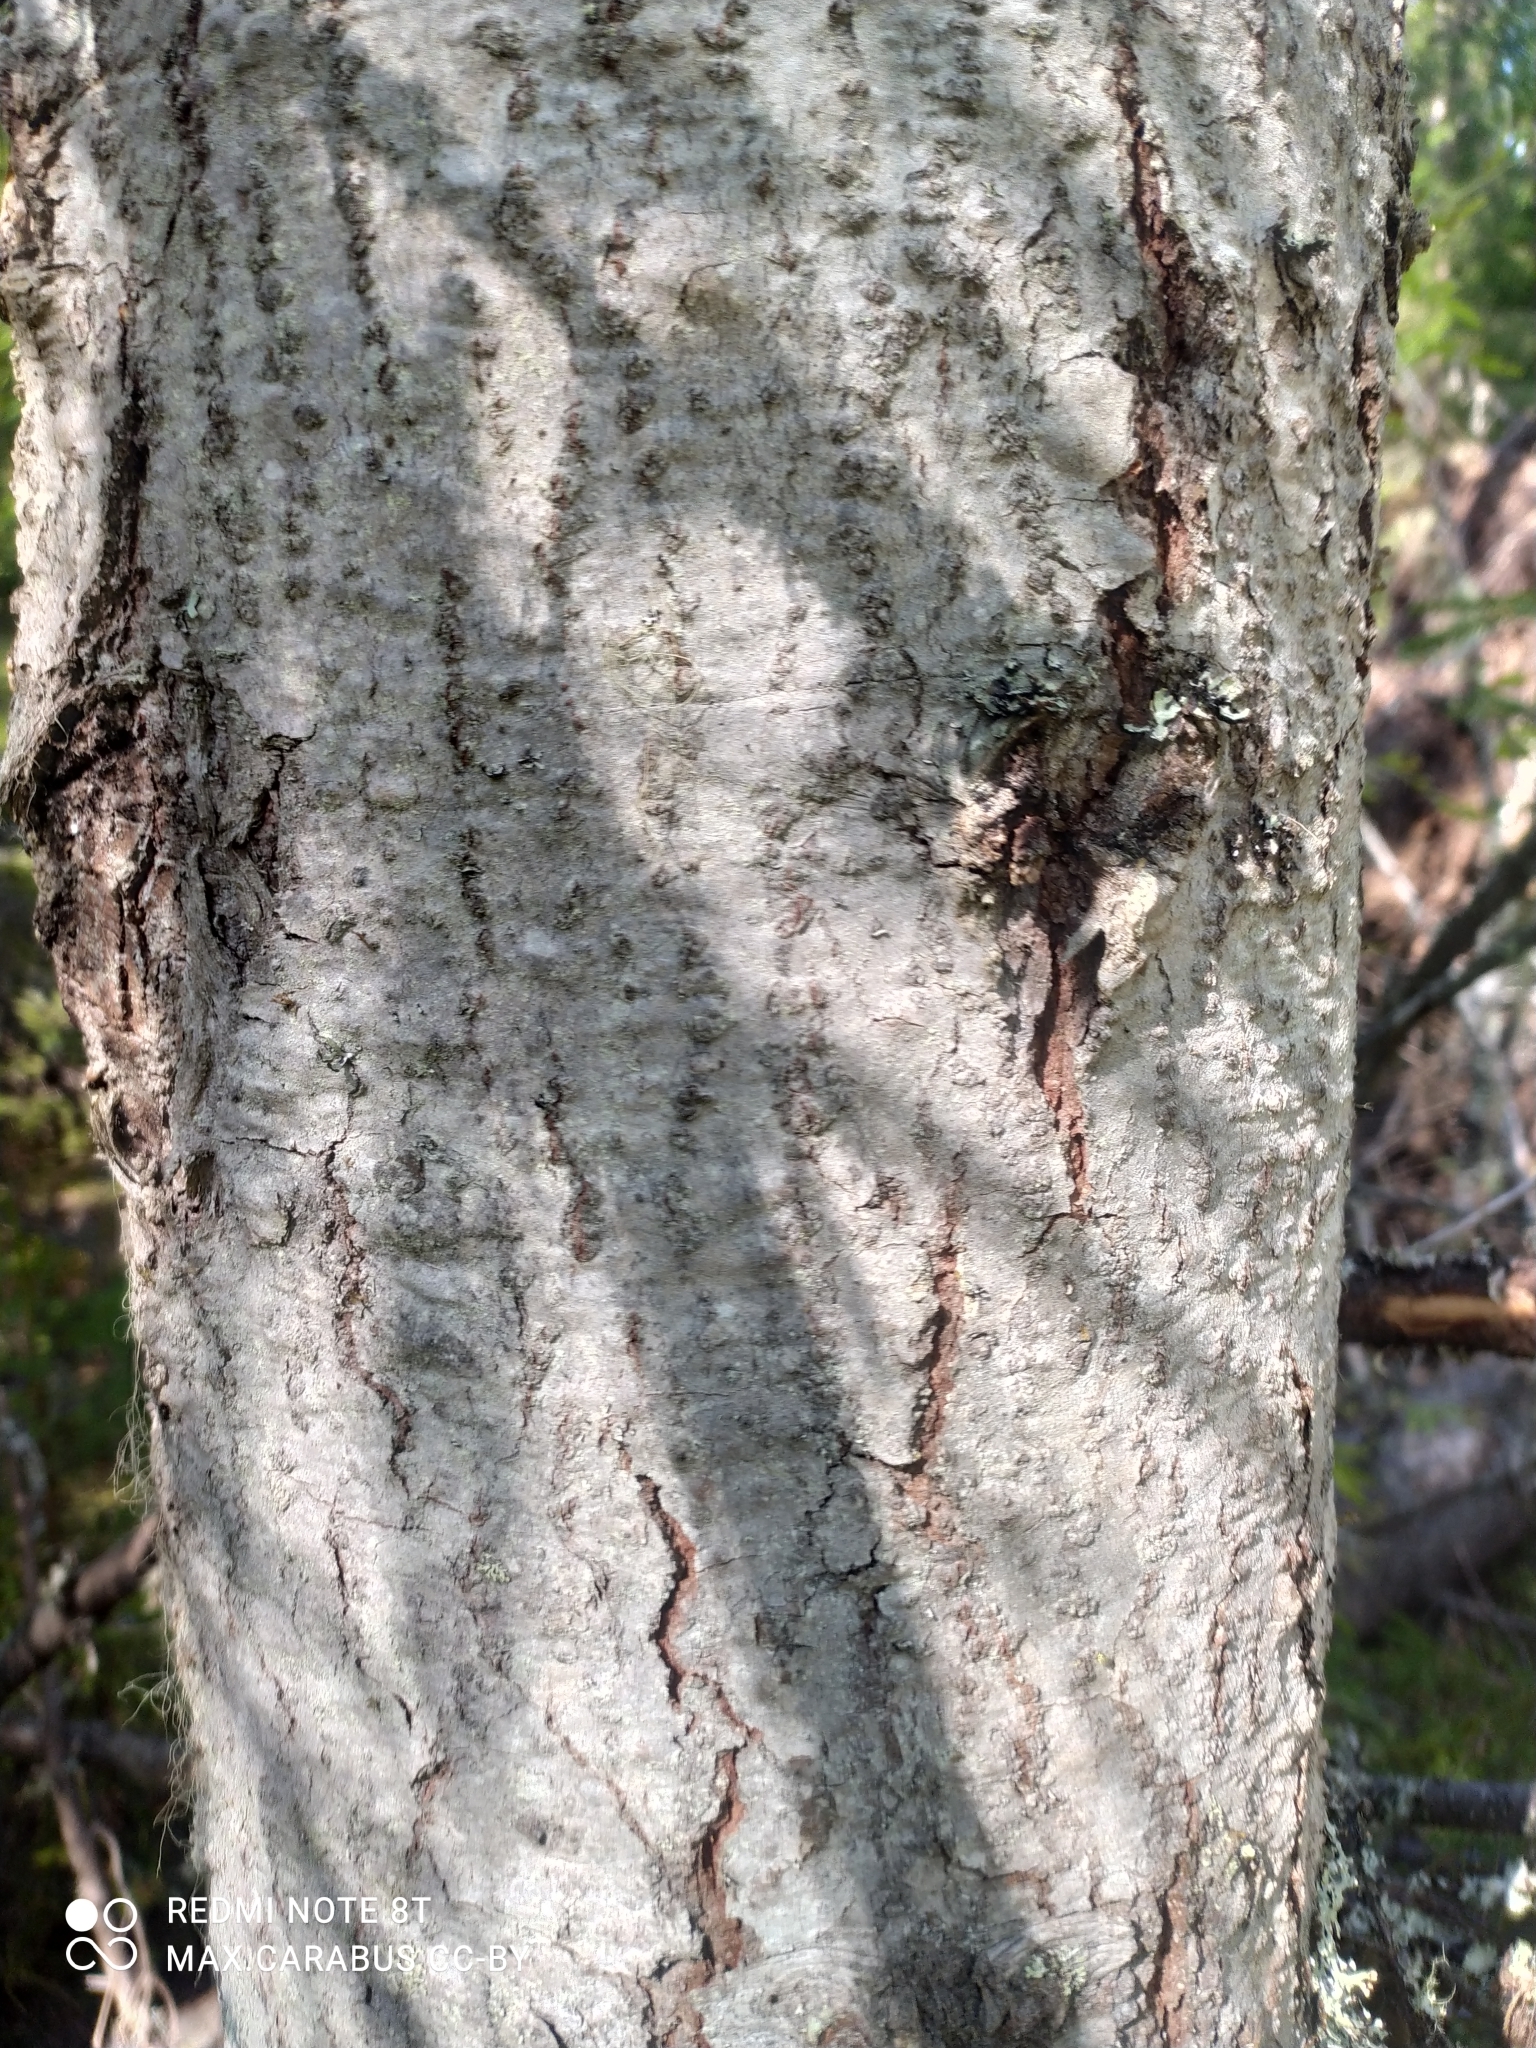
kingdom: Plantae
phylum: Tracheophyta
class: Pinopsida
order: Pinales
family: Pinaceae
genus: Abies
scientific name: Abies sibirica
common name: Siberian fir
